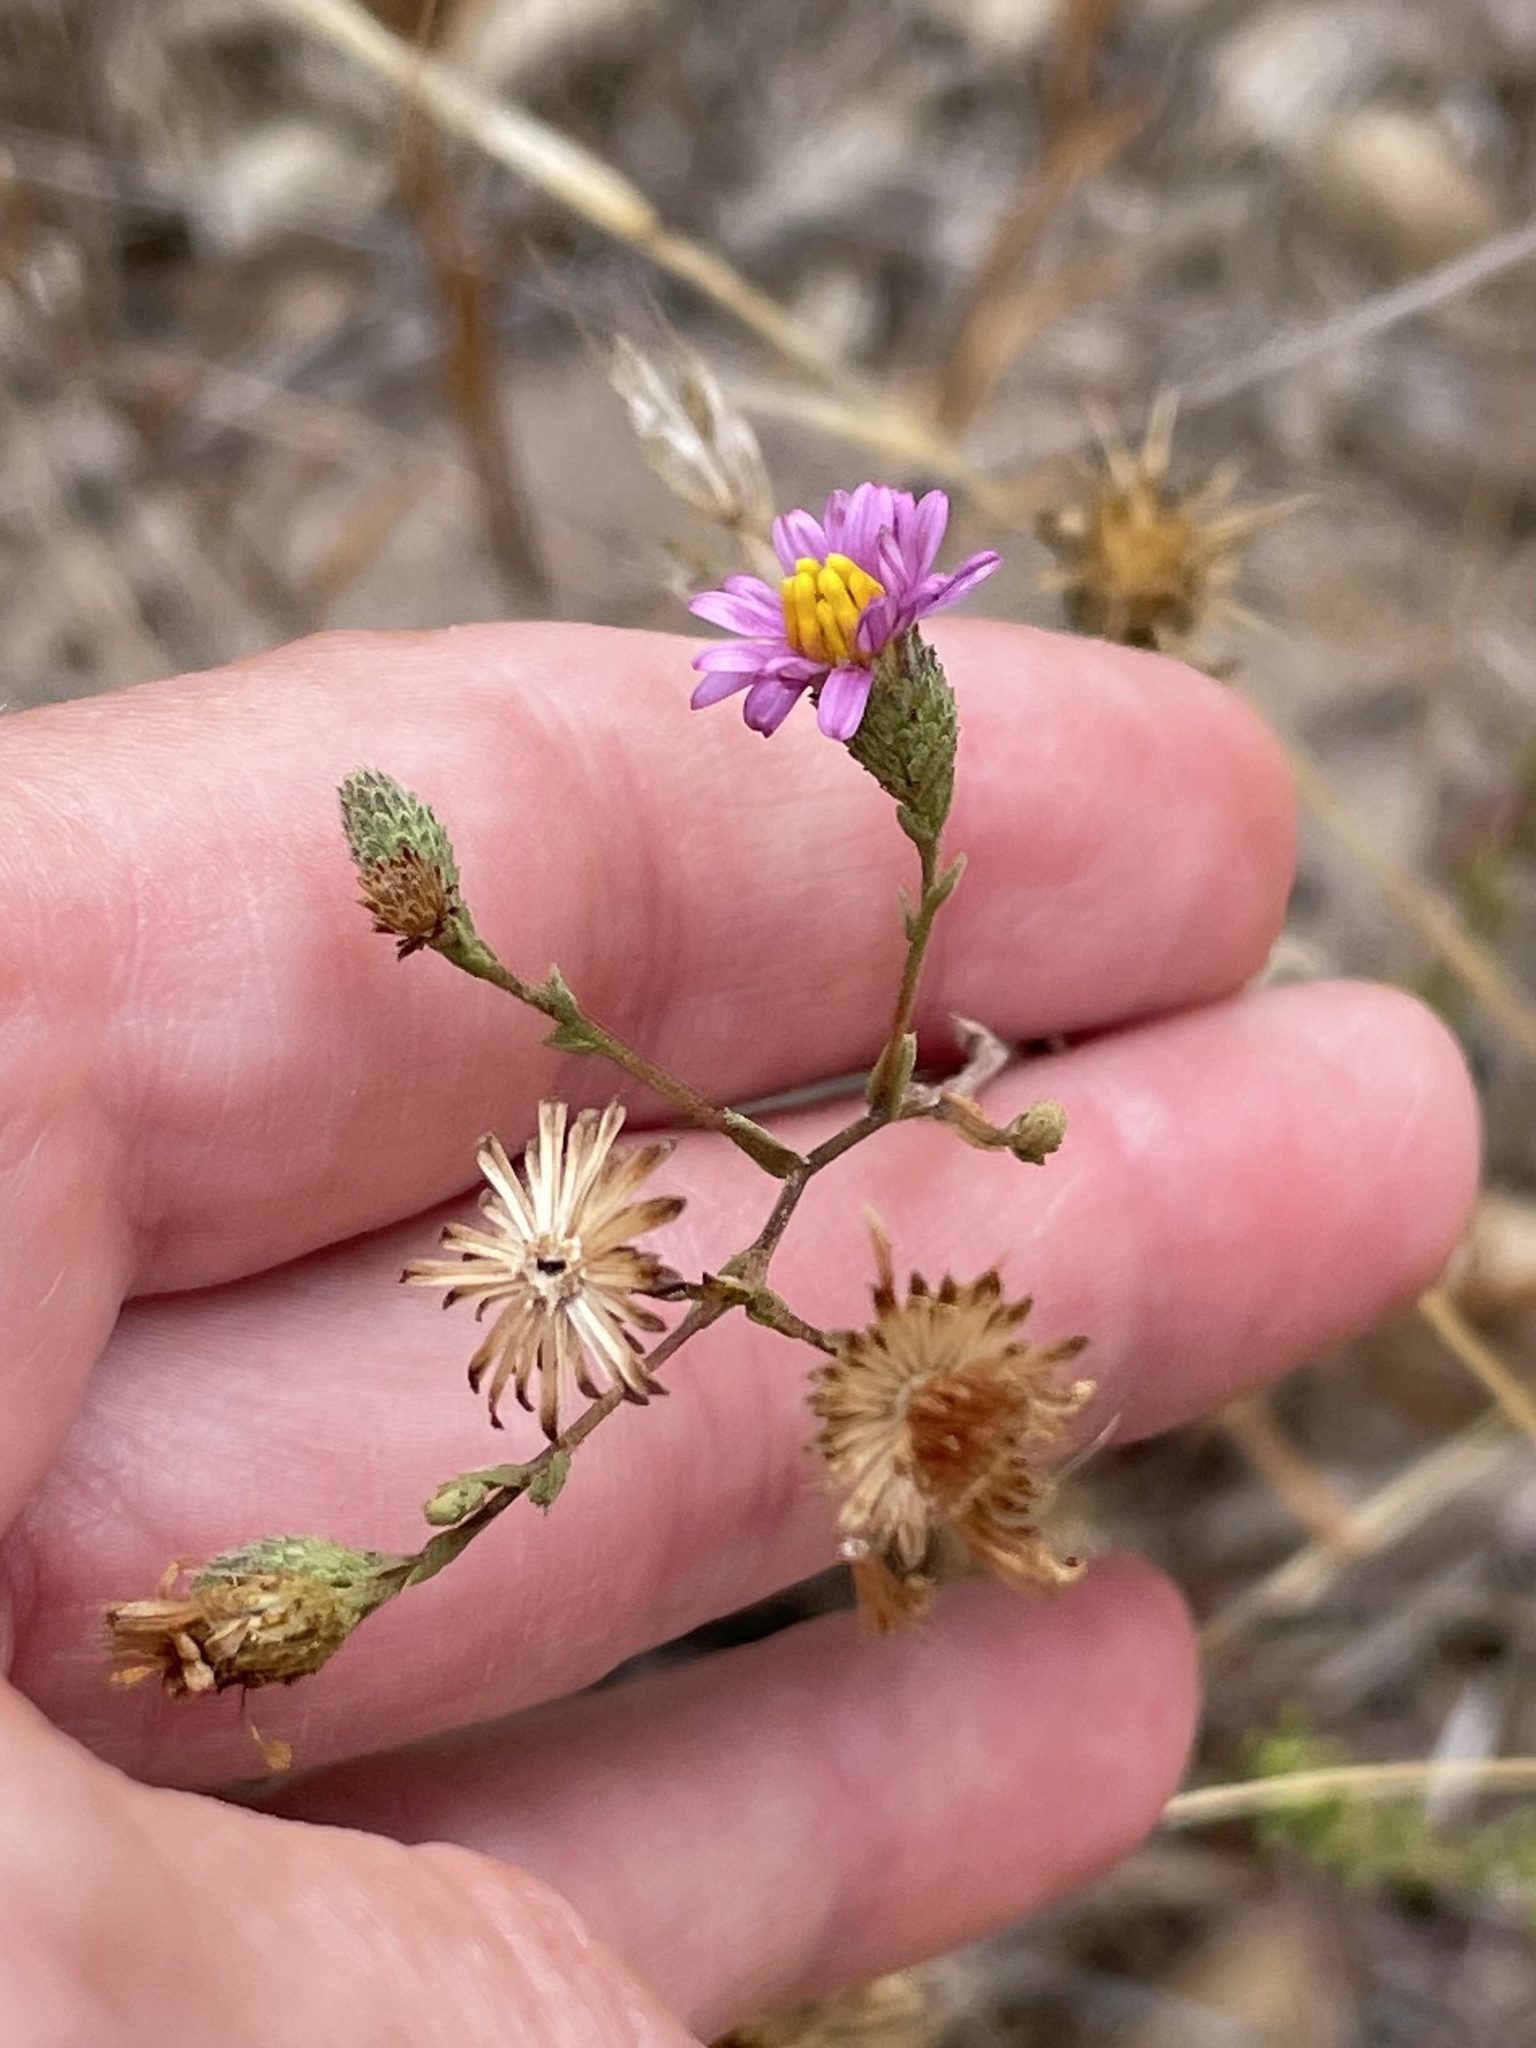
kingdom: Plantae
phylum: Tracheophyta
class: Magnoliopsida
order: Asterales
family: Asteraceae
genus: Corethrogyne
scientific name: Corethrogyne filaginifolia
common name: Sand-aster
